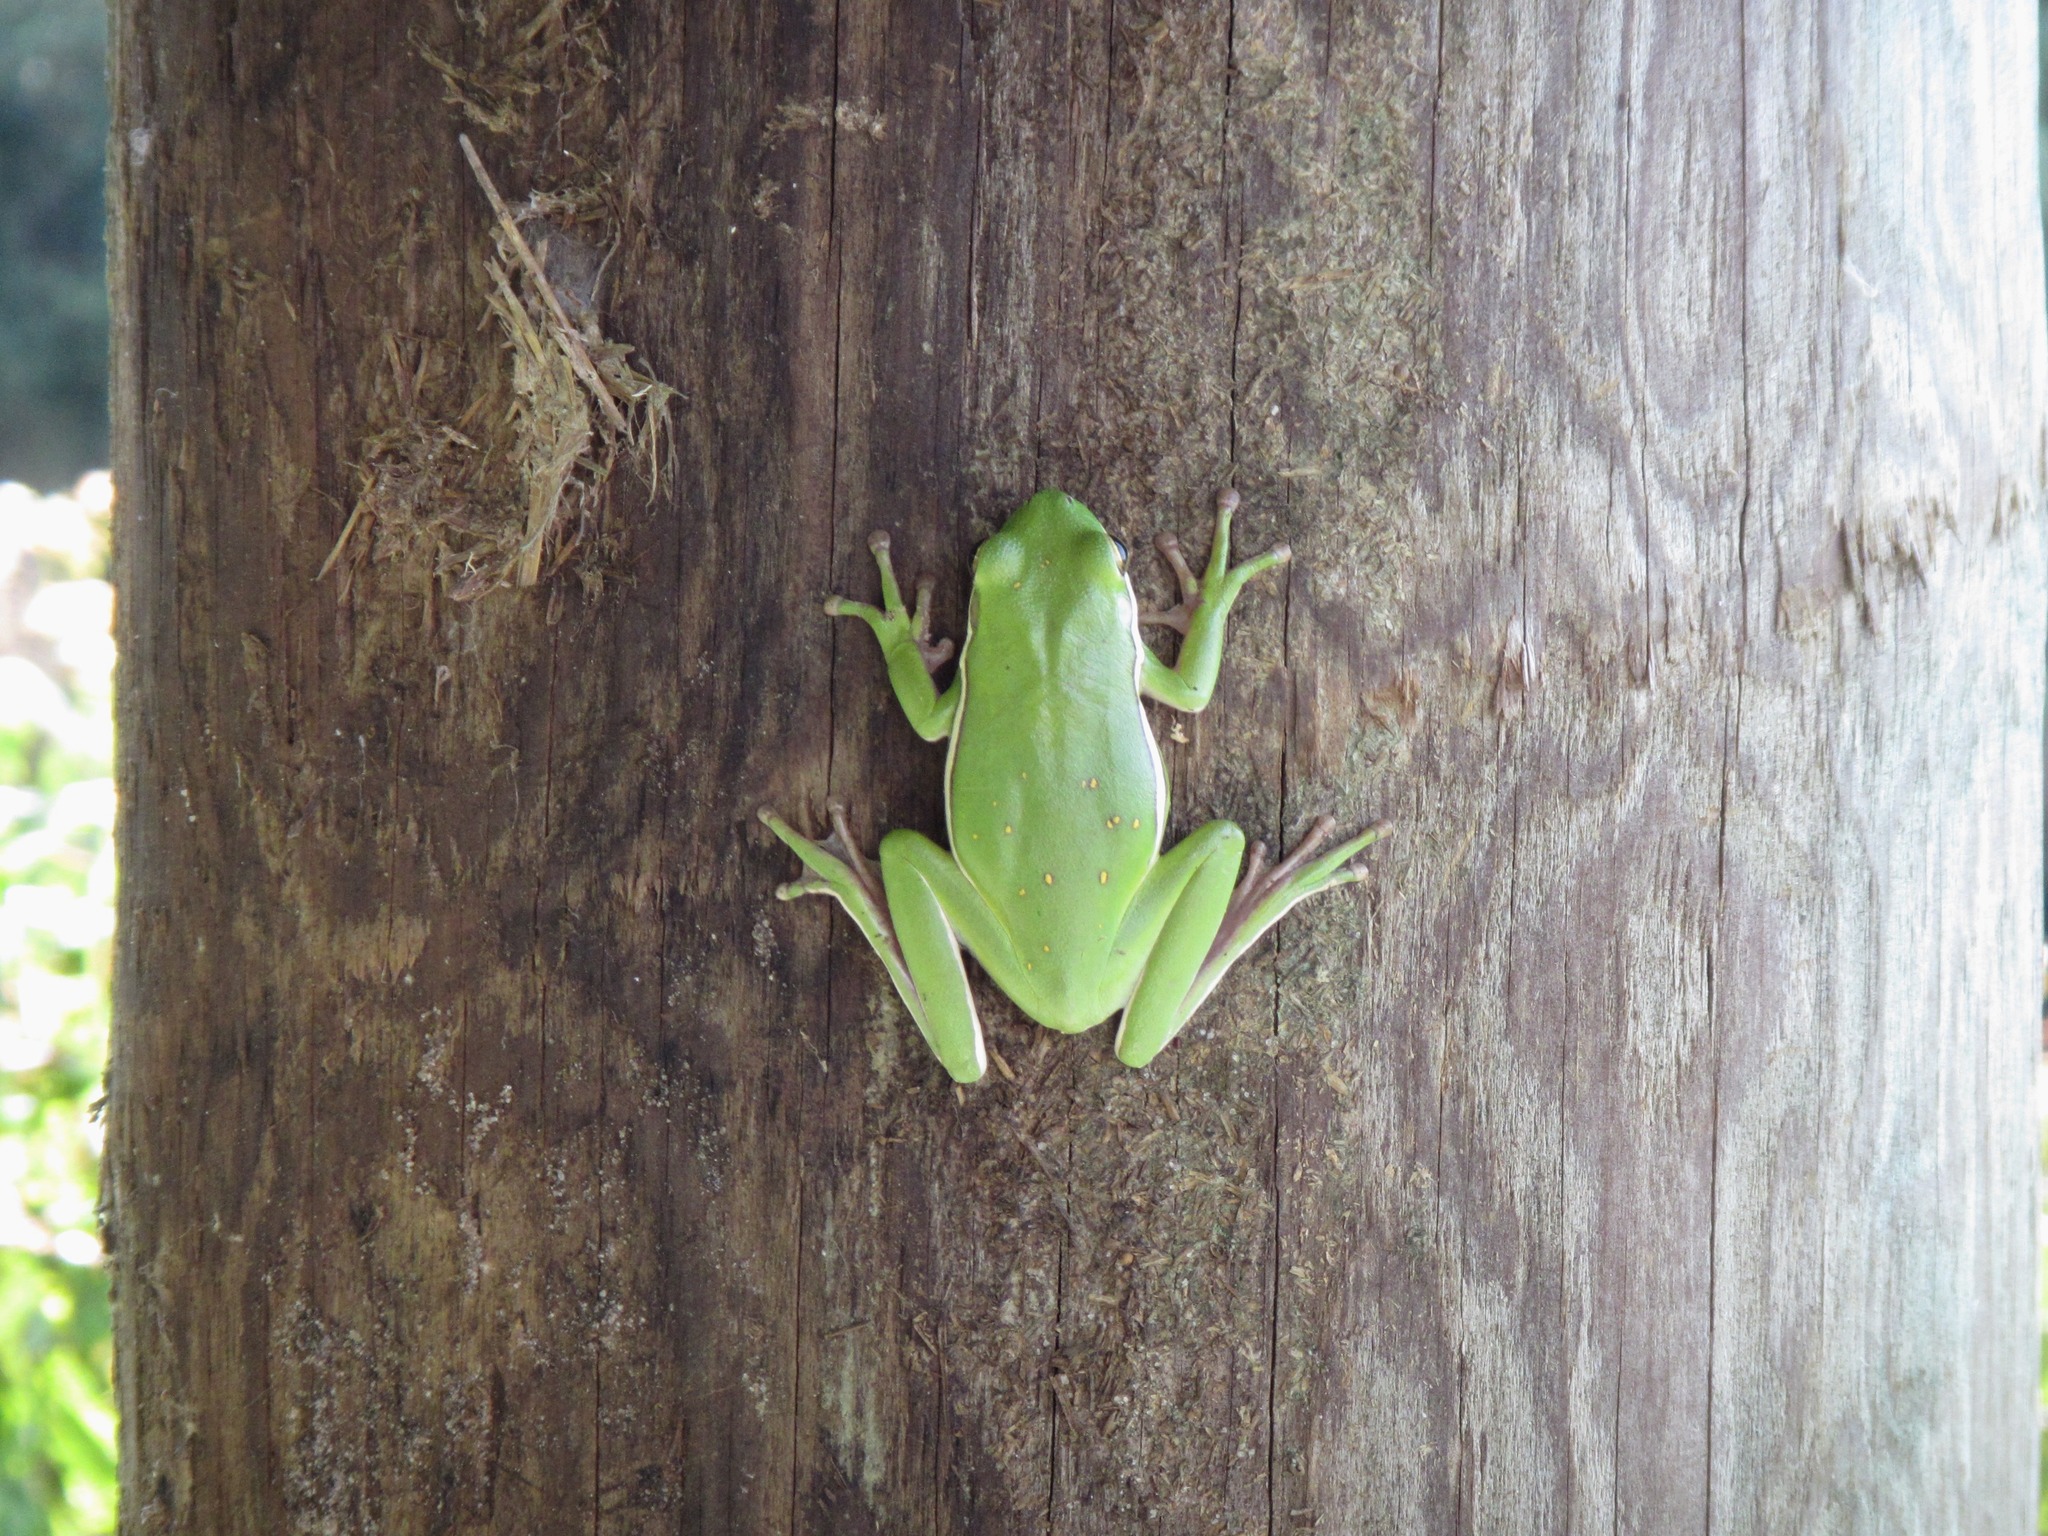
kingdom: Animalia
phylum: Chordata
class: Amphibia
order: Anura
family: Hylidae
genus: Dryophytes
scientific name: Dryophytes cinereus
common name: Green treefrog
